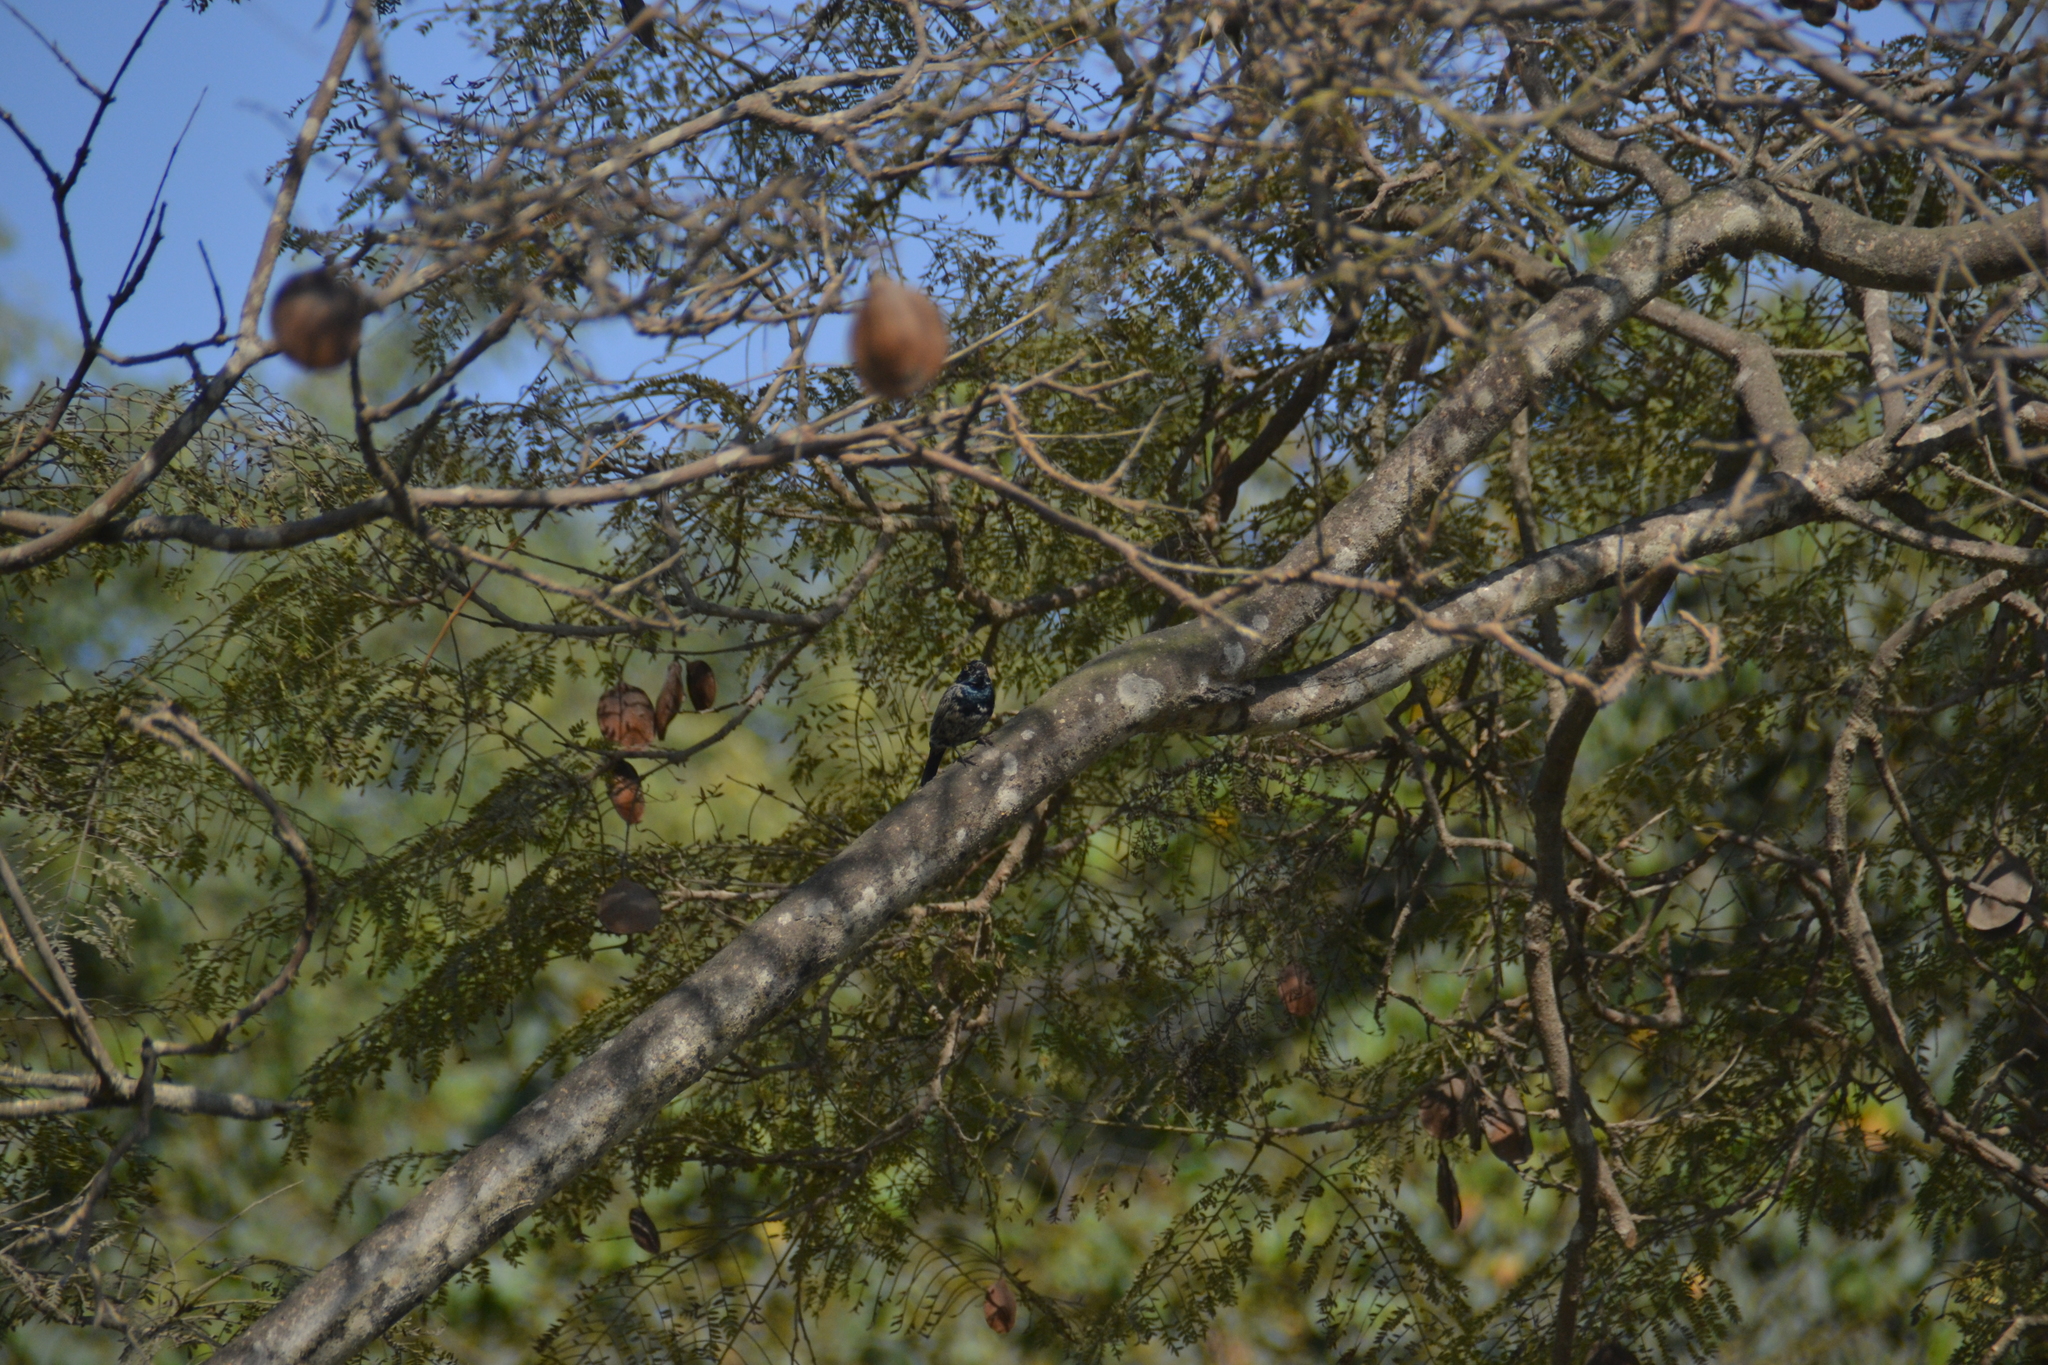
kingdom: Animalia
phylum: Chordata
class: Aves
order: Passeriformes
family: Thraupidae
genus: Volatinia
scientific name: Volatinia jacarina
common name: Blue-black grassquit
